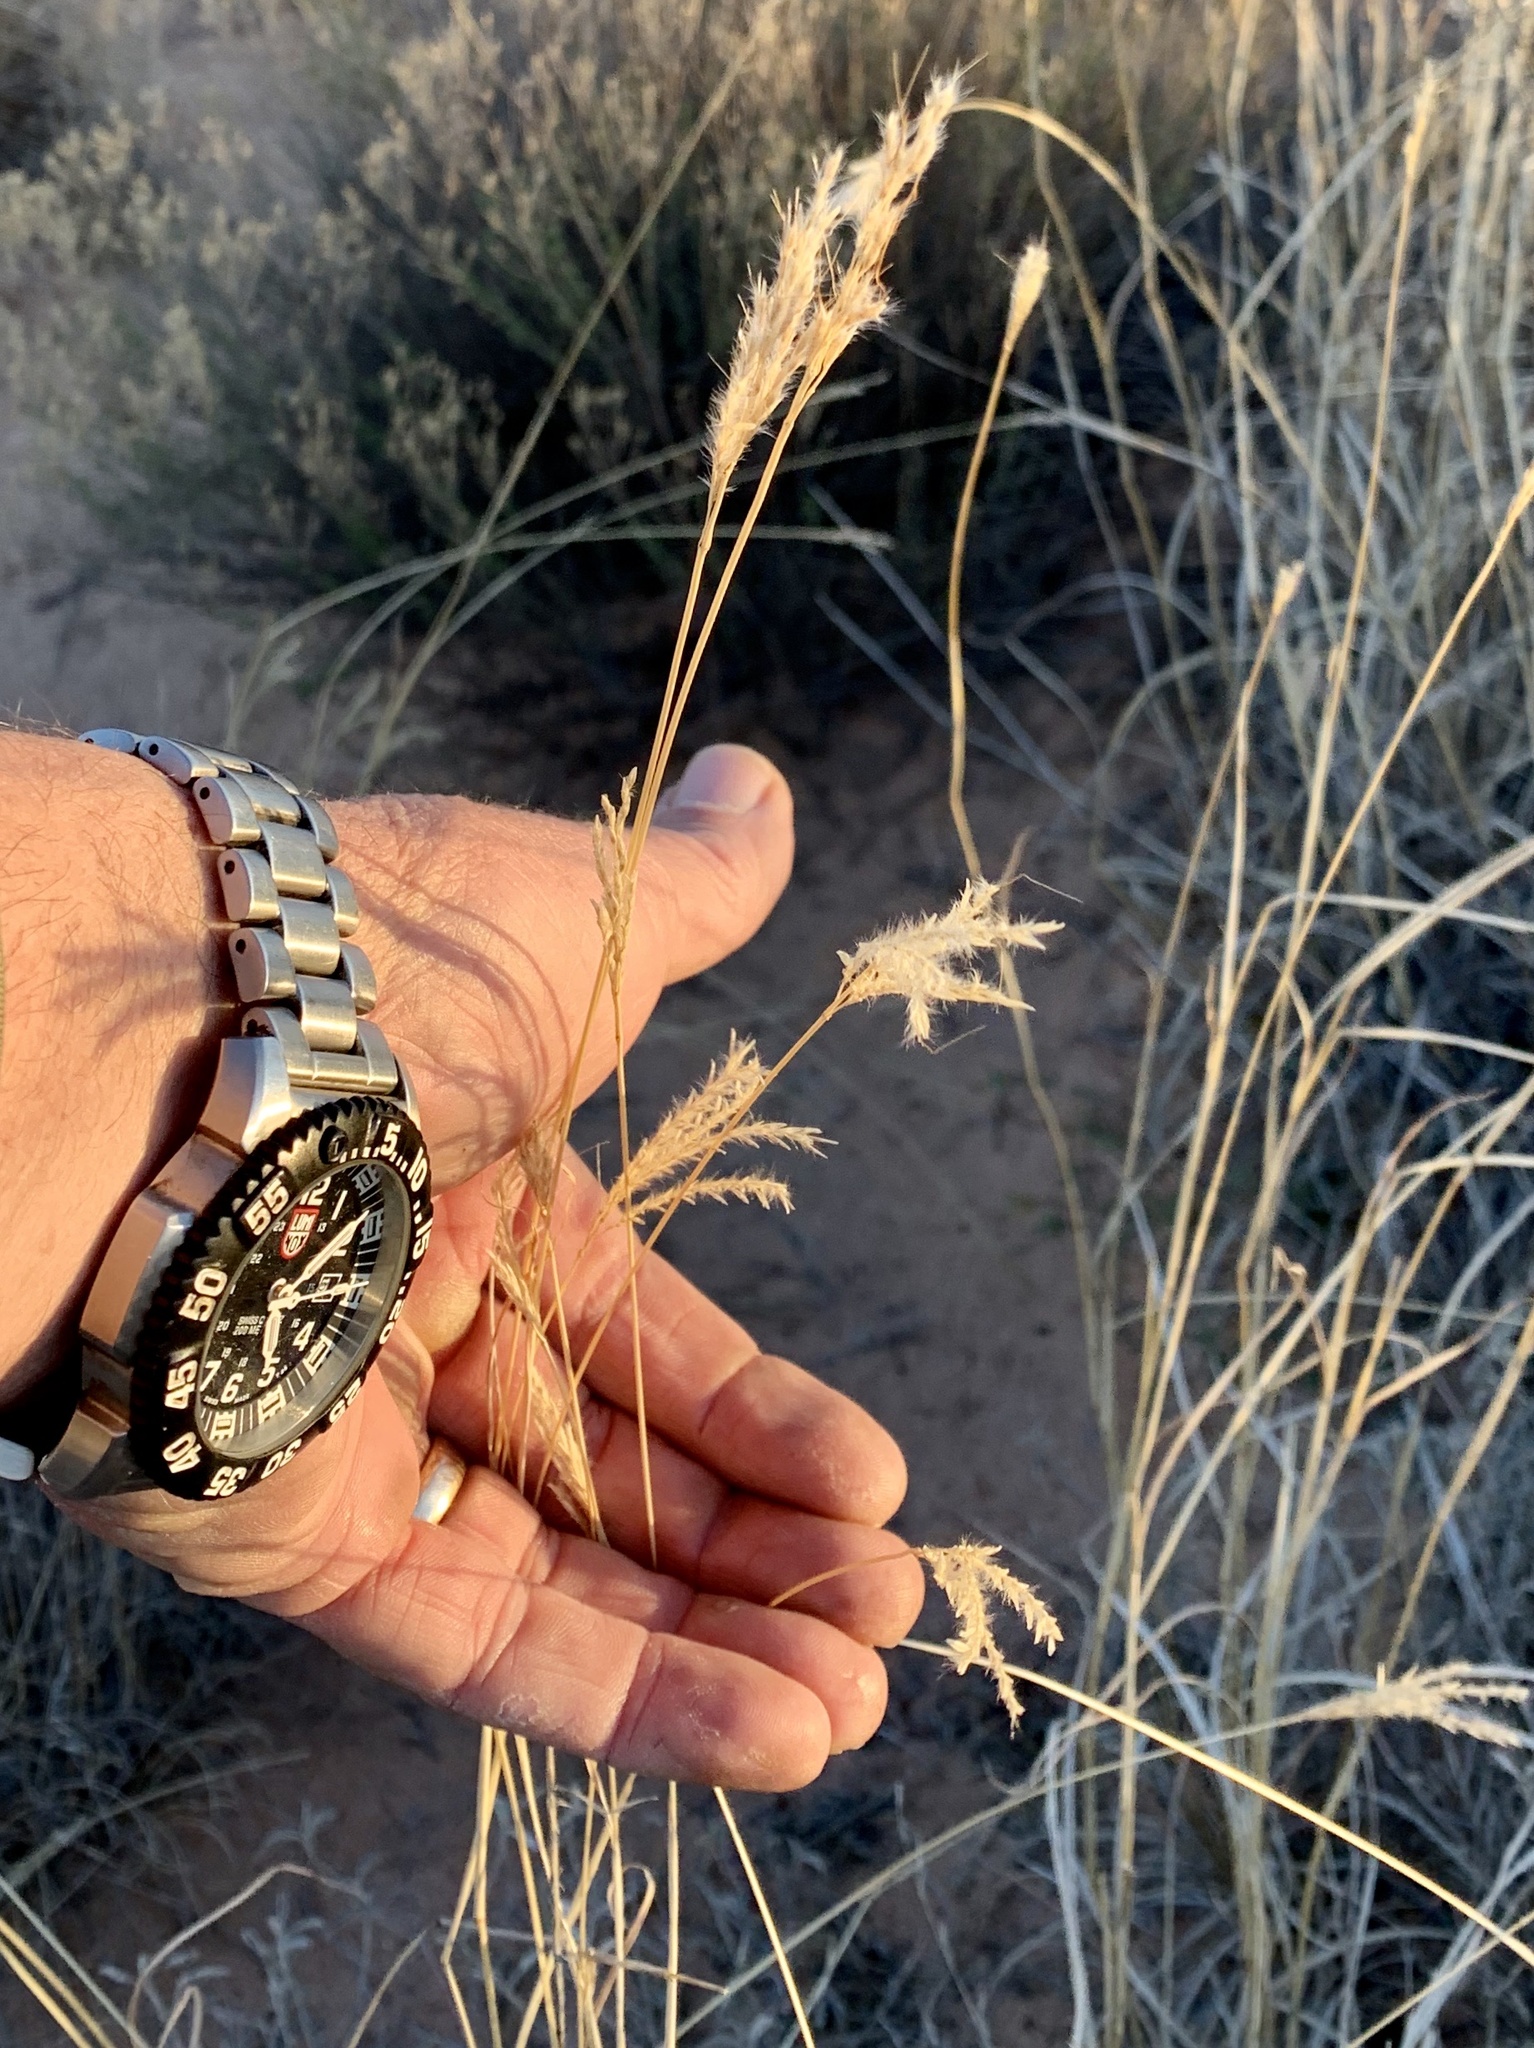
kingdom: Plantae
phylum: Tracheophyta
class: Liliopsida
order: Poales
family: Poaceae
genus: Bothriochloa
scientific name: Bothriochloa ischaemum
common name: Yellow bluestem
